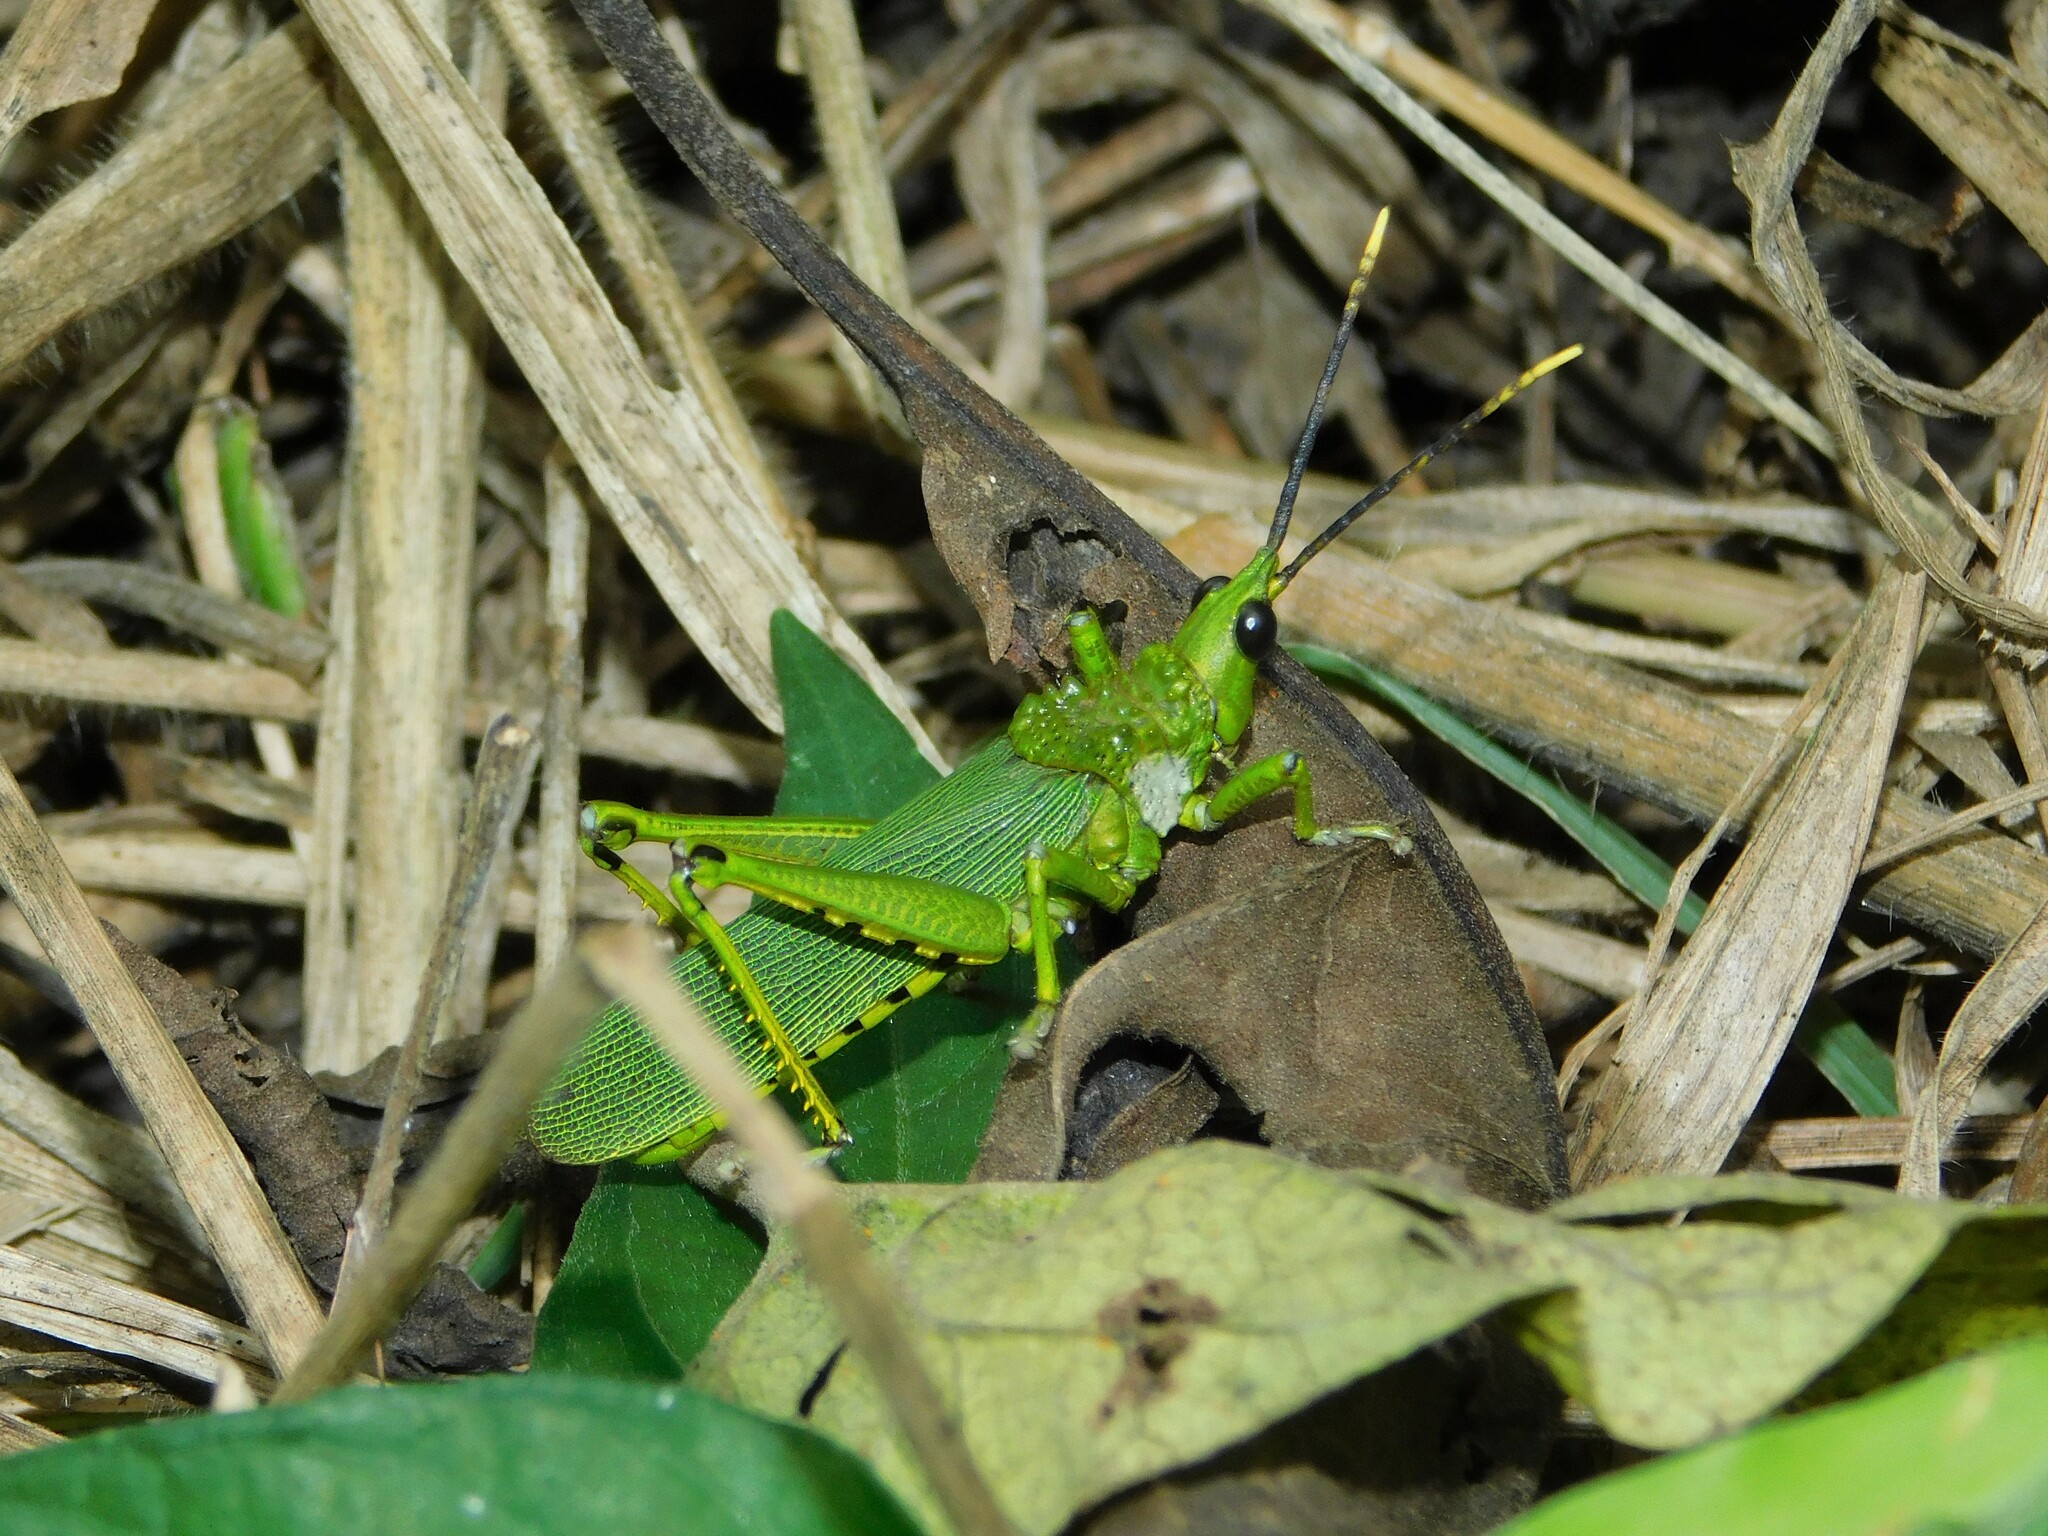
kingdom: Animalia
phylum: Arthropoda
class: Insecta
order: Orthoptera
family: Pyrgomorphidae
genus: Taphronota
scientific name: Taphronota calliparea
